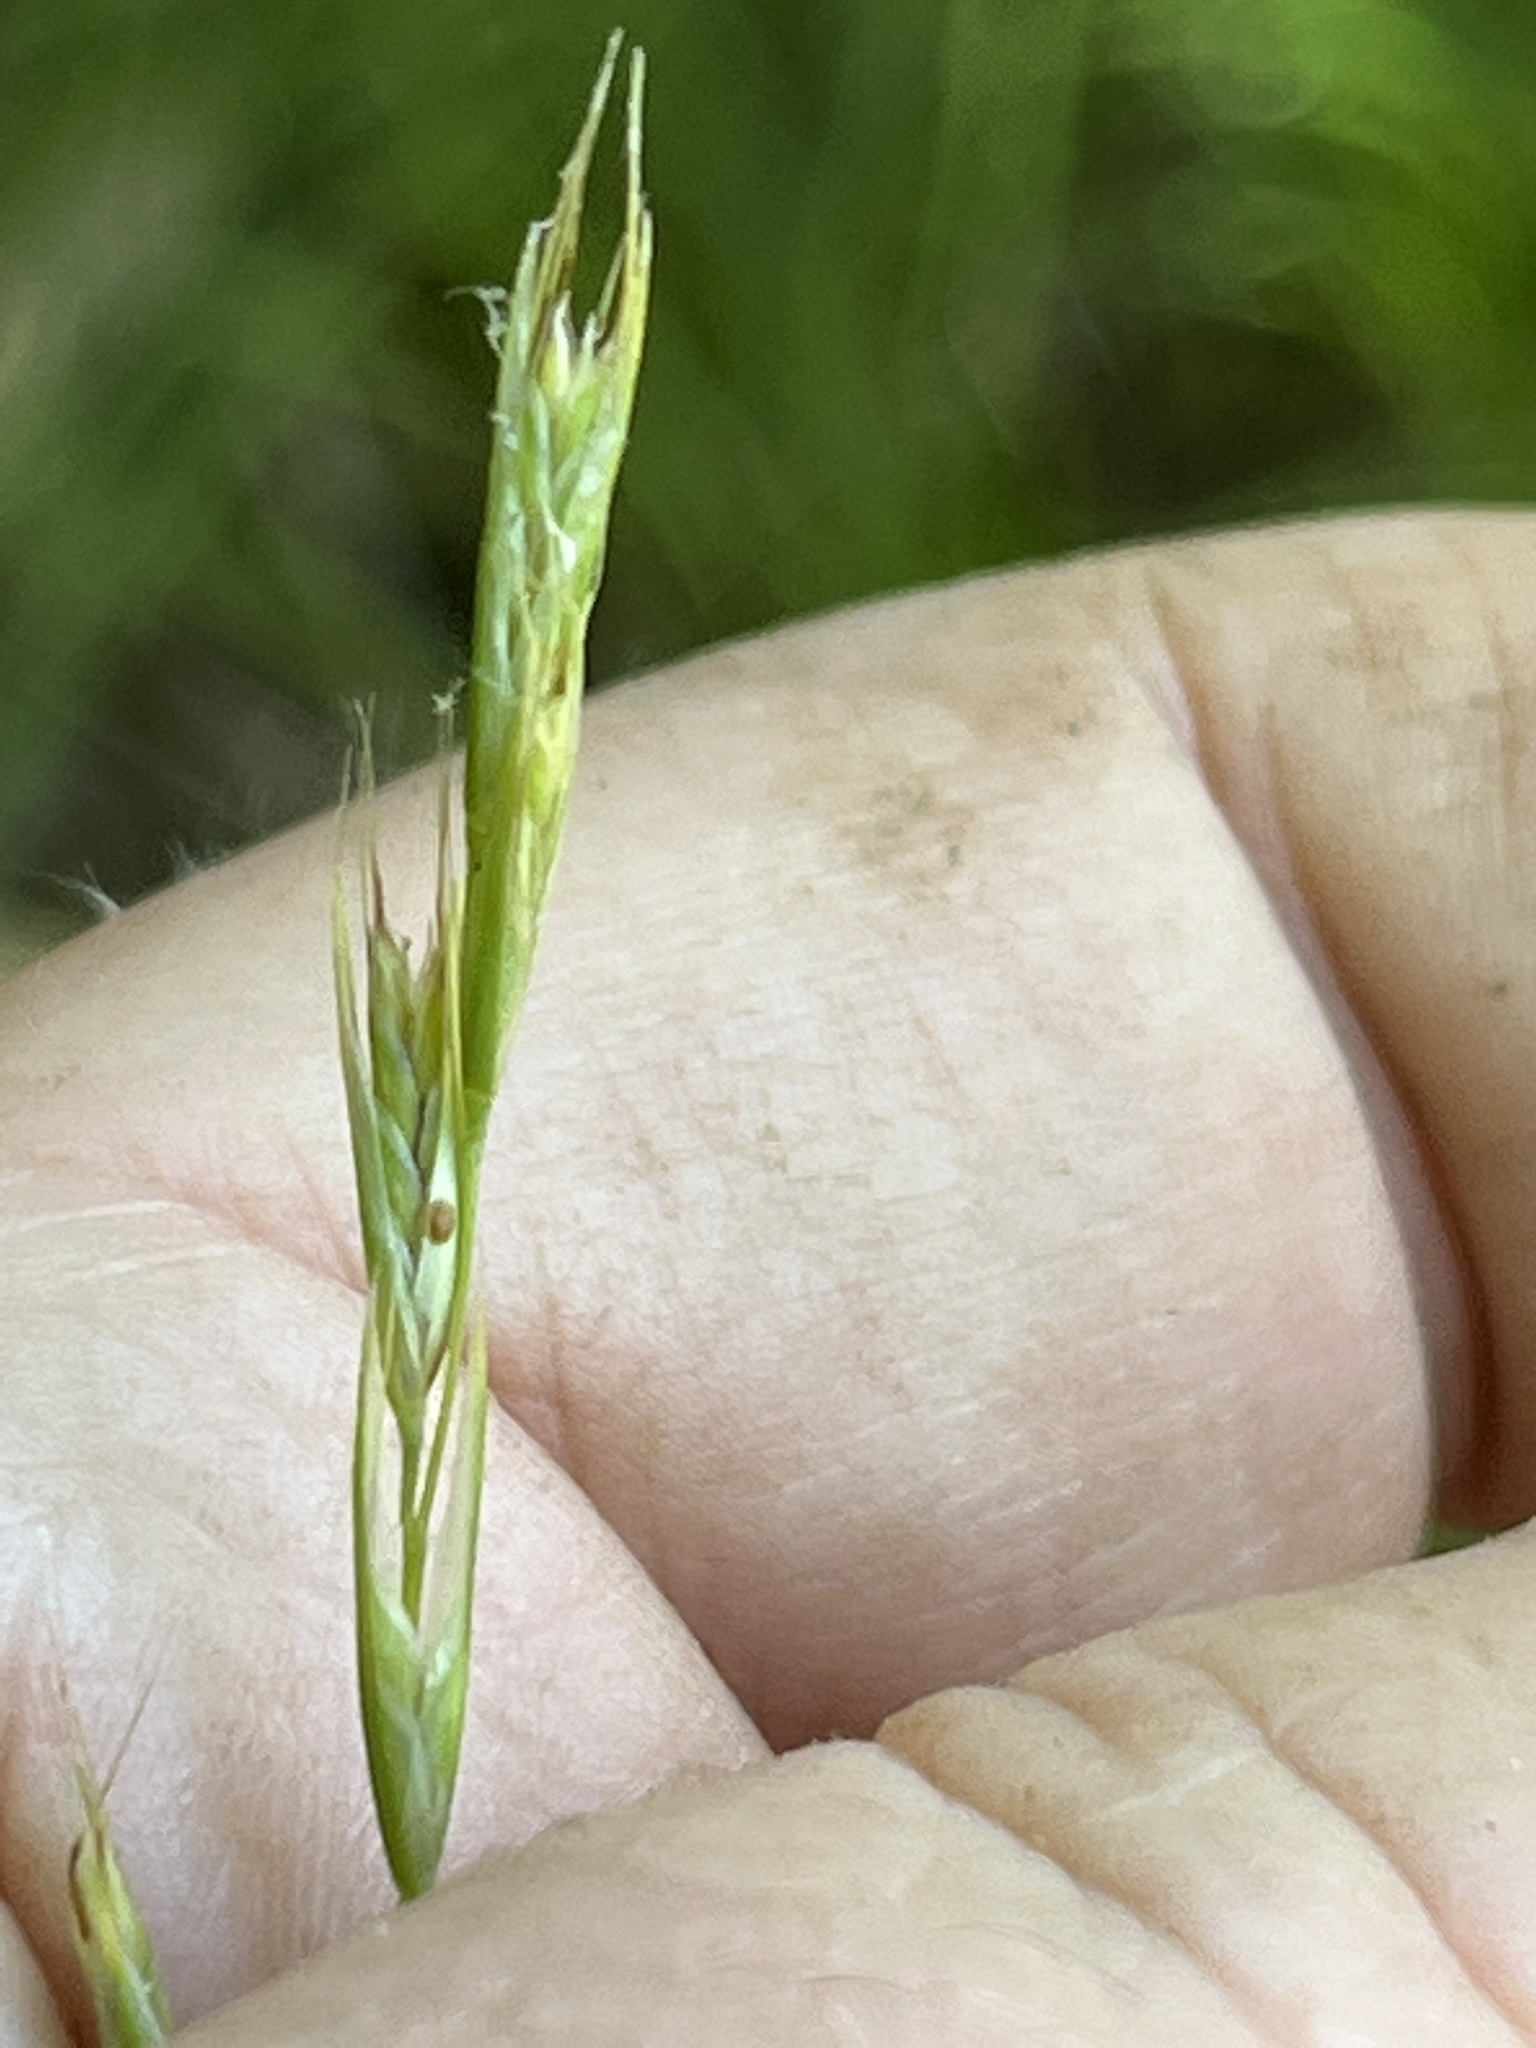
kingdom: Plantae
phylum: Tracheophyta
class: Liliopsida
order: Poales
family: Poaceae
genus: Danthonia
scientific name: Danthonia spicata
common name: Common wild oatgrass
